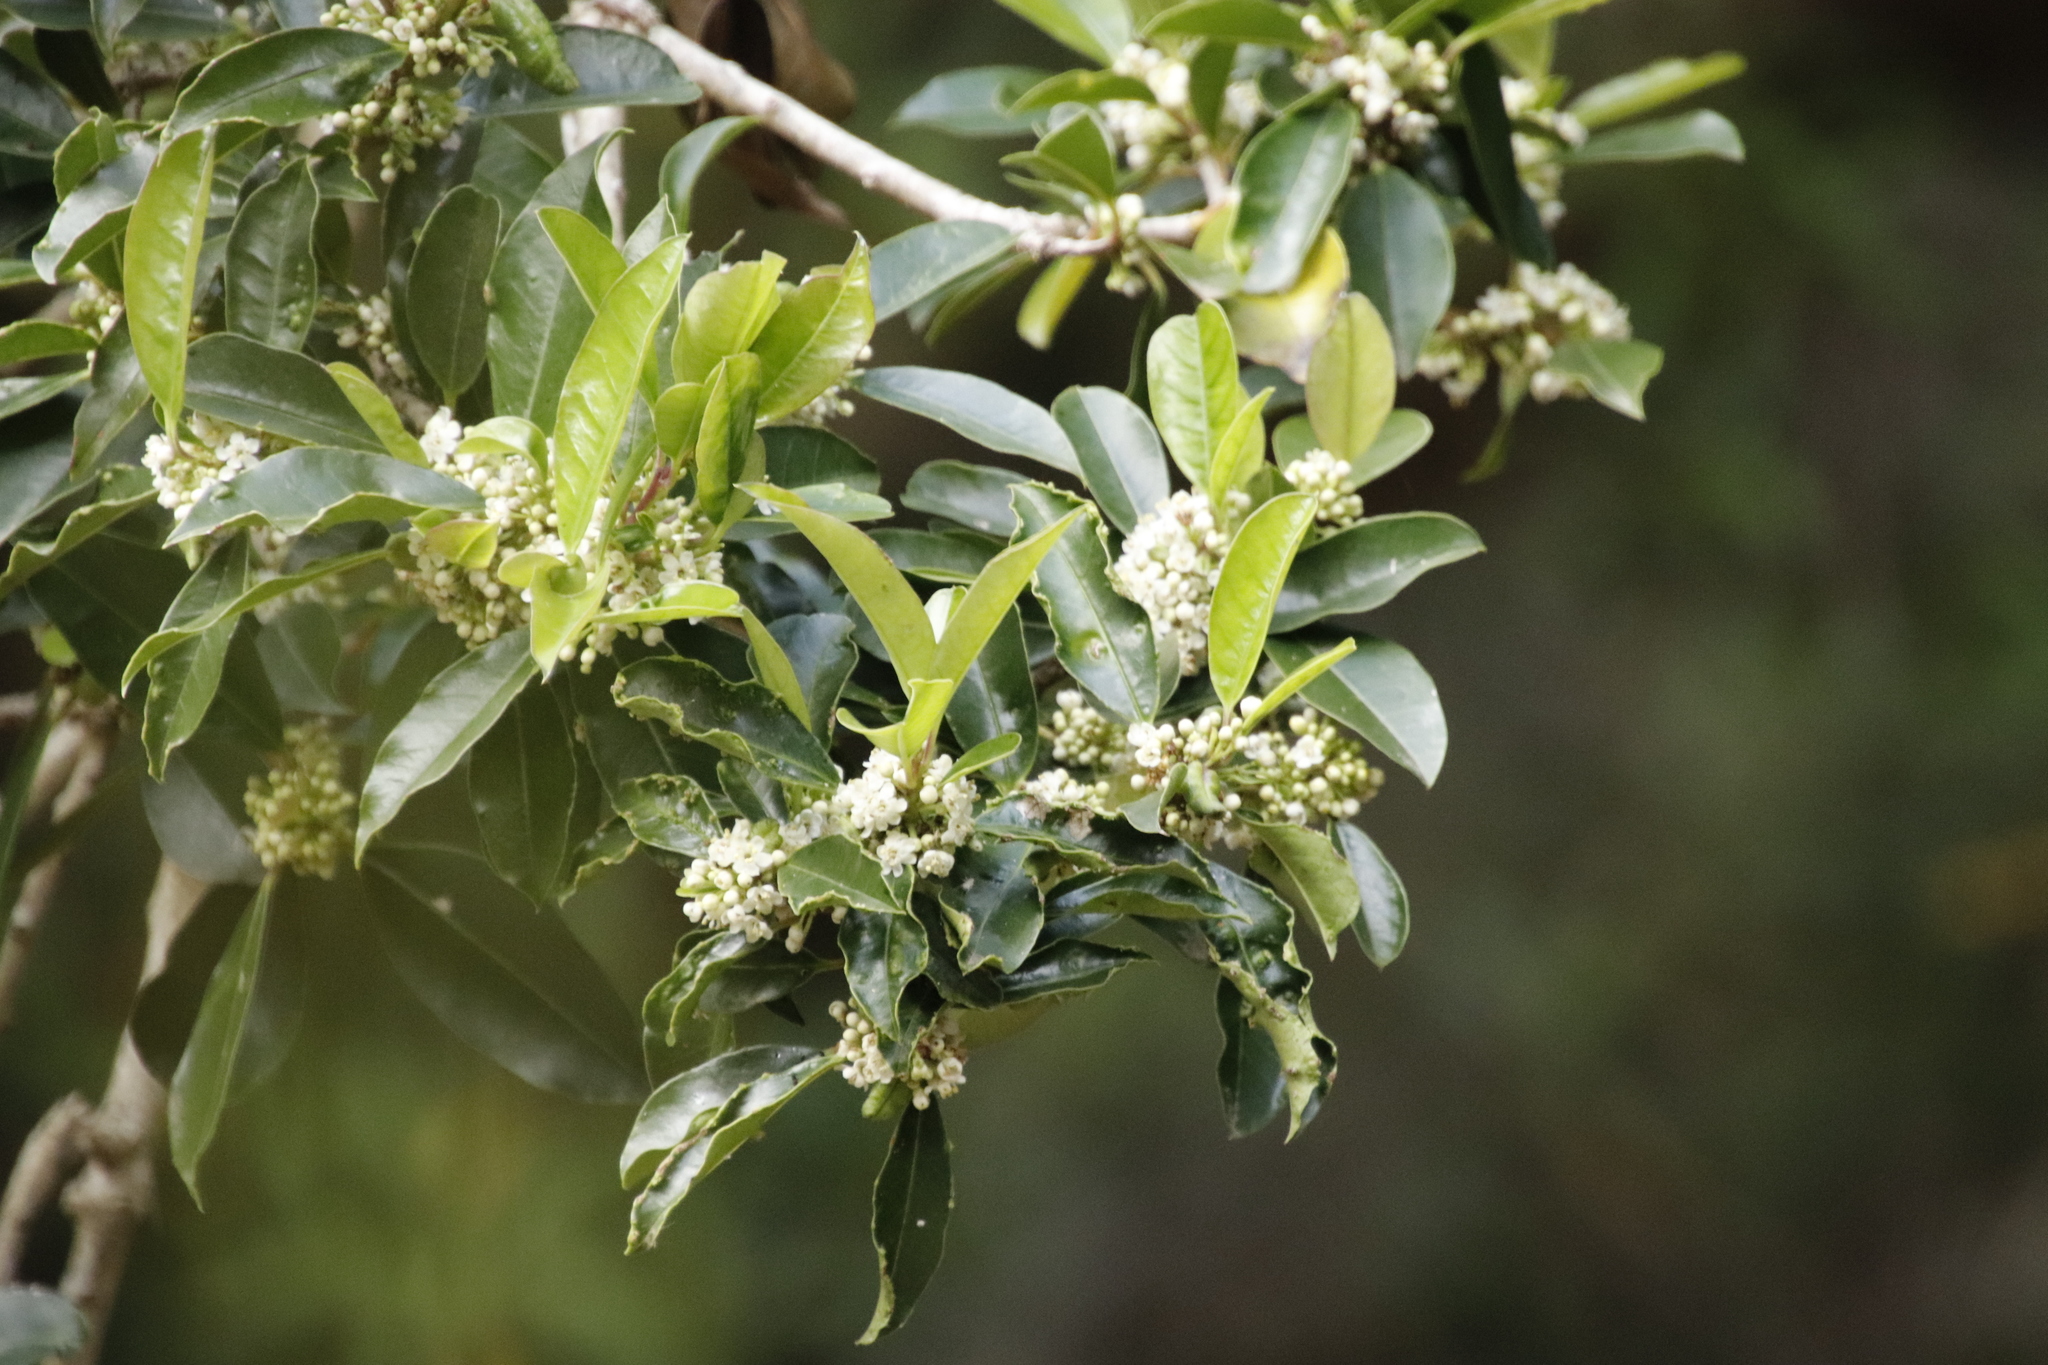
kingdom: Plantae
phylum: Tracheophyta
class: Magnoliopsida
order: Aquifoliales
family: Aquifoliaceae
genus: Ilex
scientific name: Ilex mitis
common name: African holly
